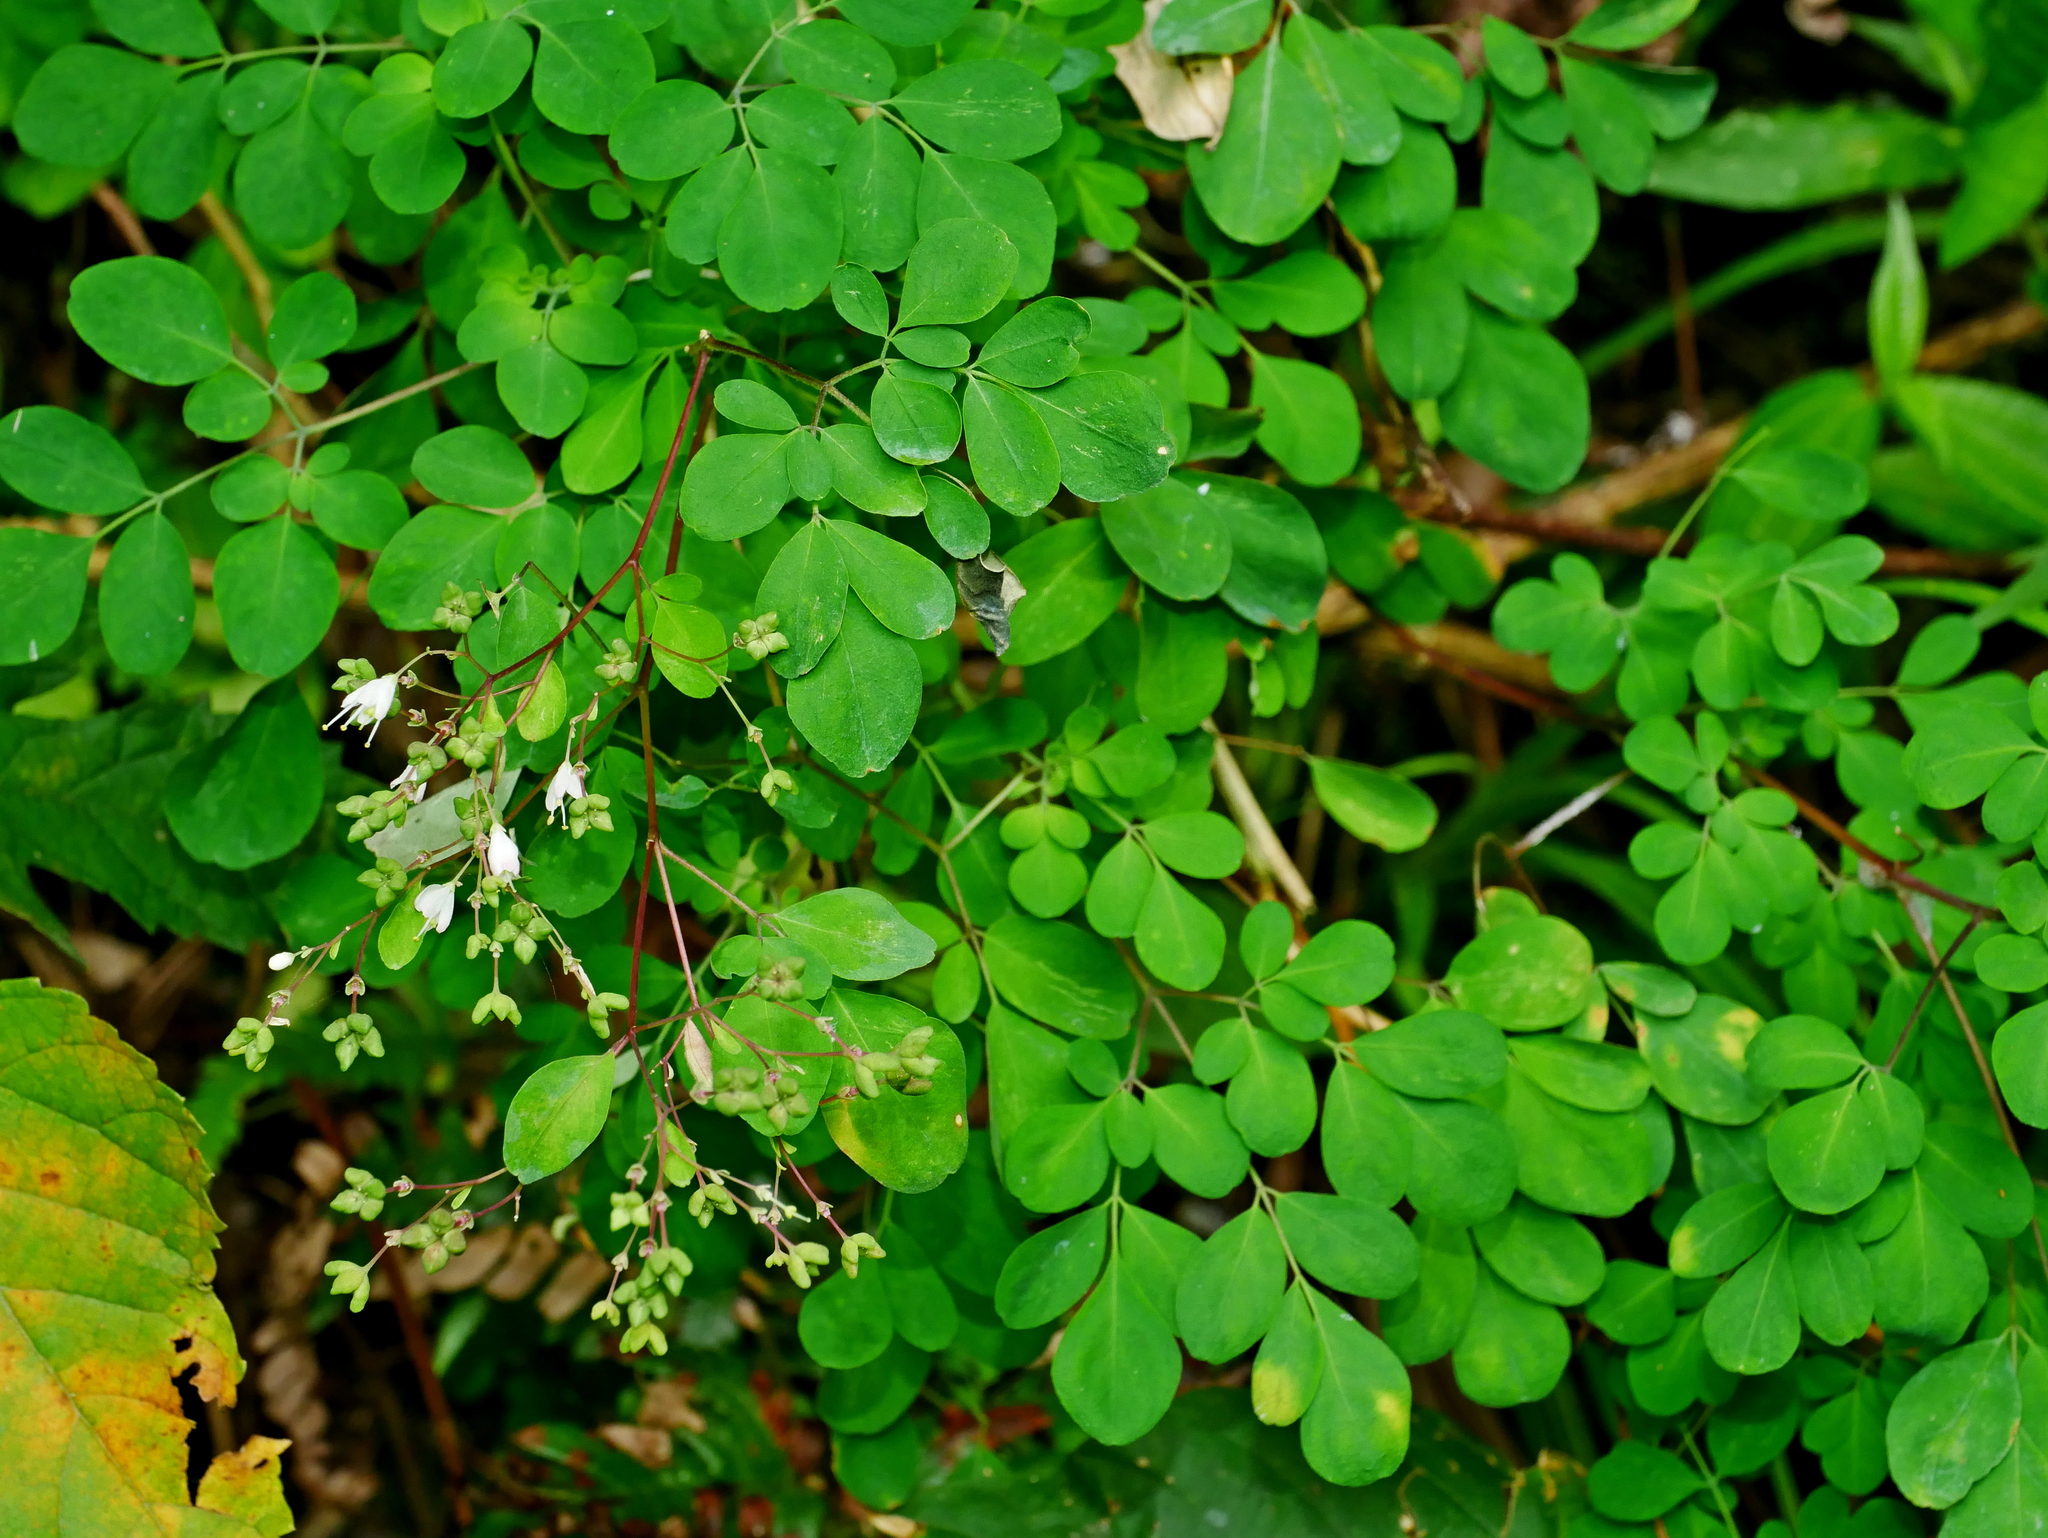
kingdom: Plantae
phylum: Tracheophyta
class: Magnoliopsida
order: Sapindales
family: Rutaceae
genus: Boenninghausenia
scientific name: Boenninghausenia albiflora
